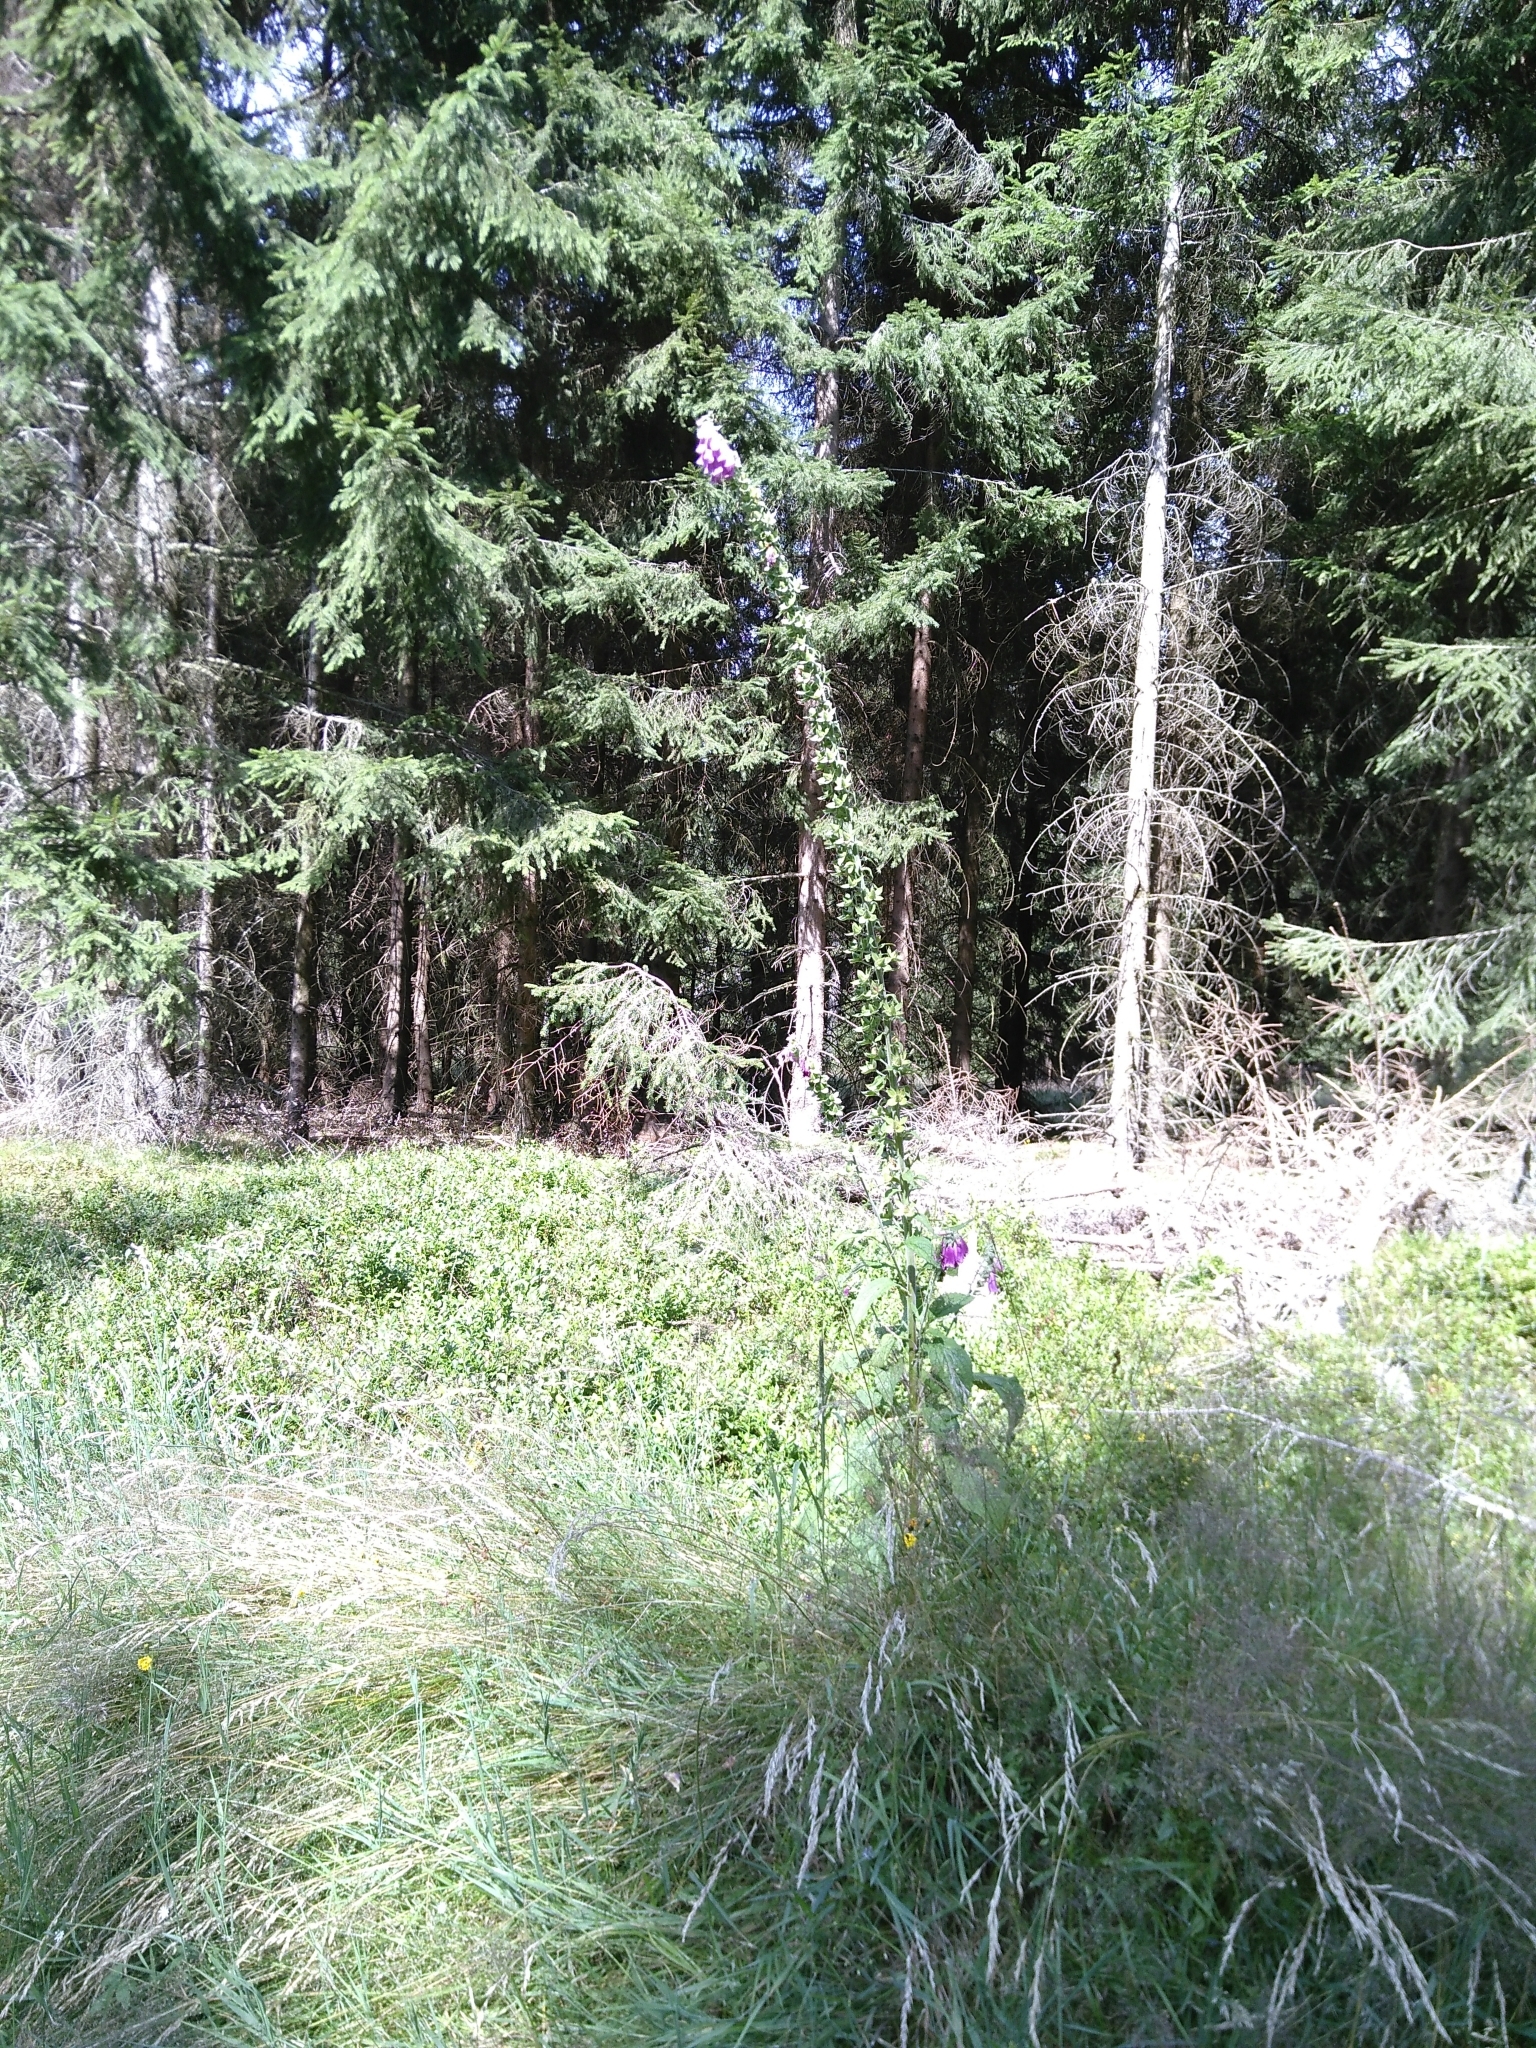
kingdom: Plantae
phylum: Tracheophyta
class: Magnoliopsida
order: Lamiales
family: Plantaginaceae
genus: Digitalis
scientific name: Digitalis purpurea
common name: Foxglove
